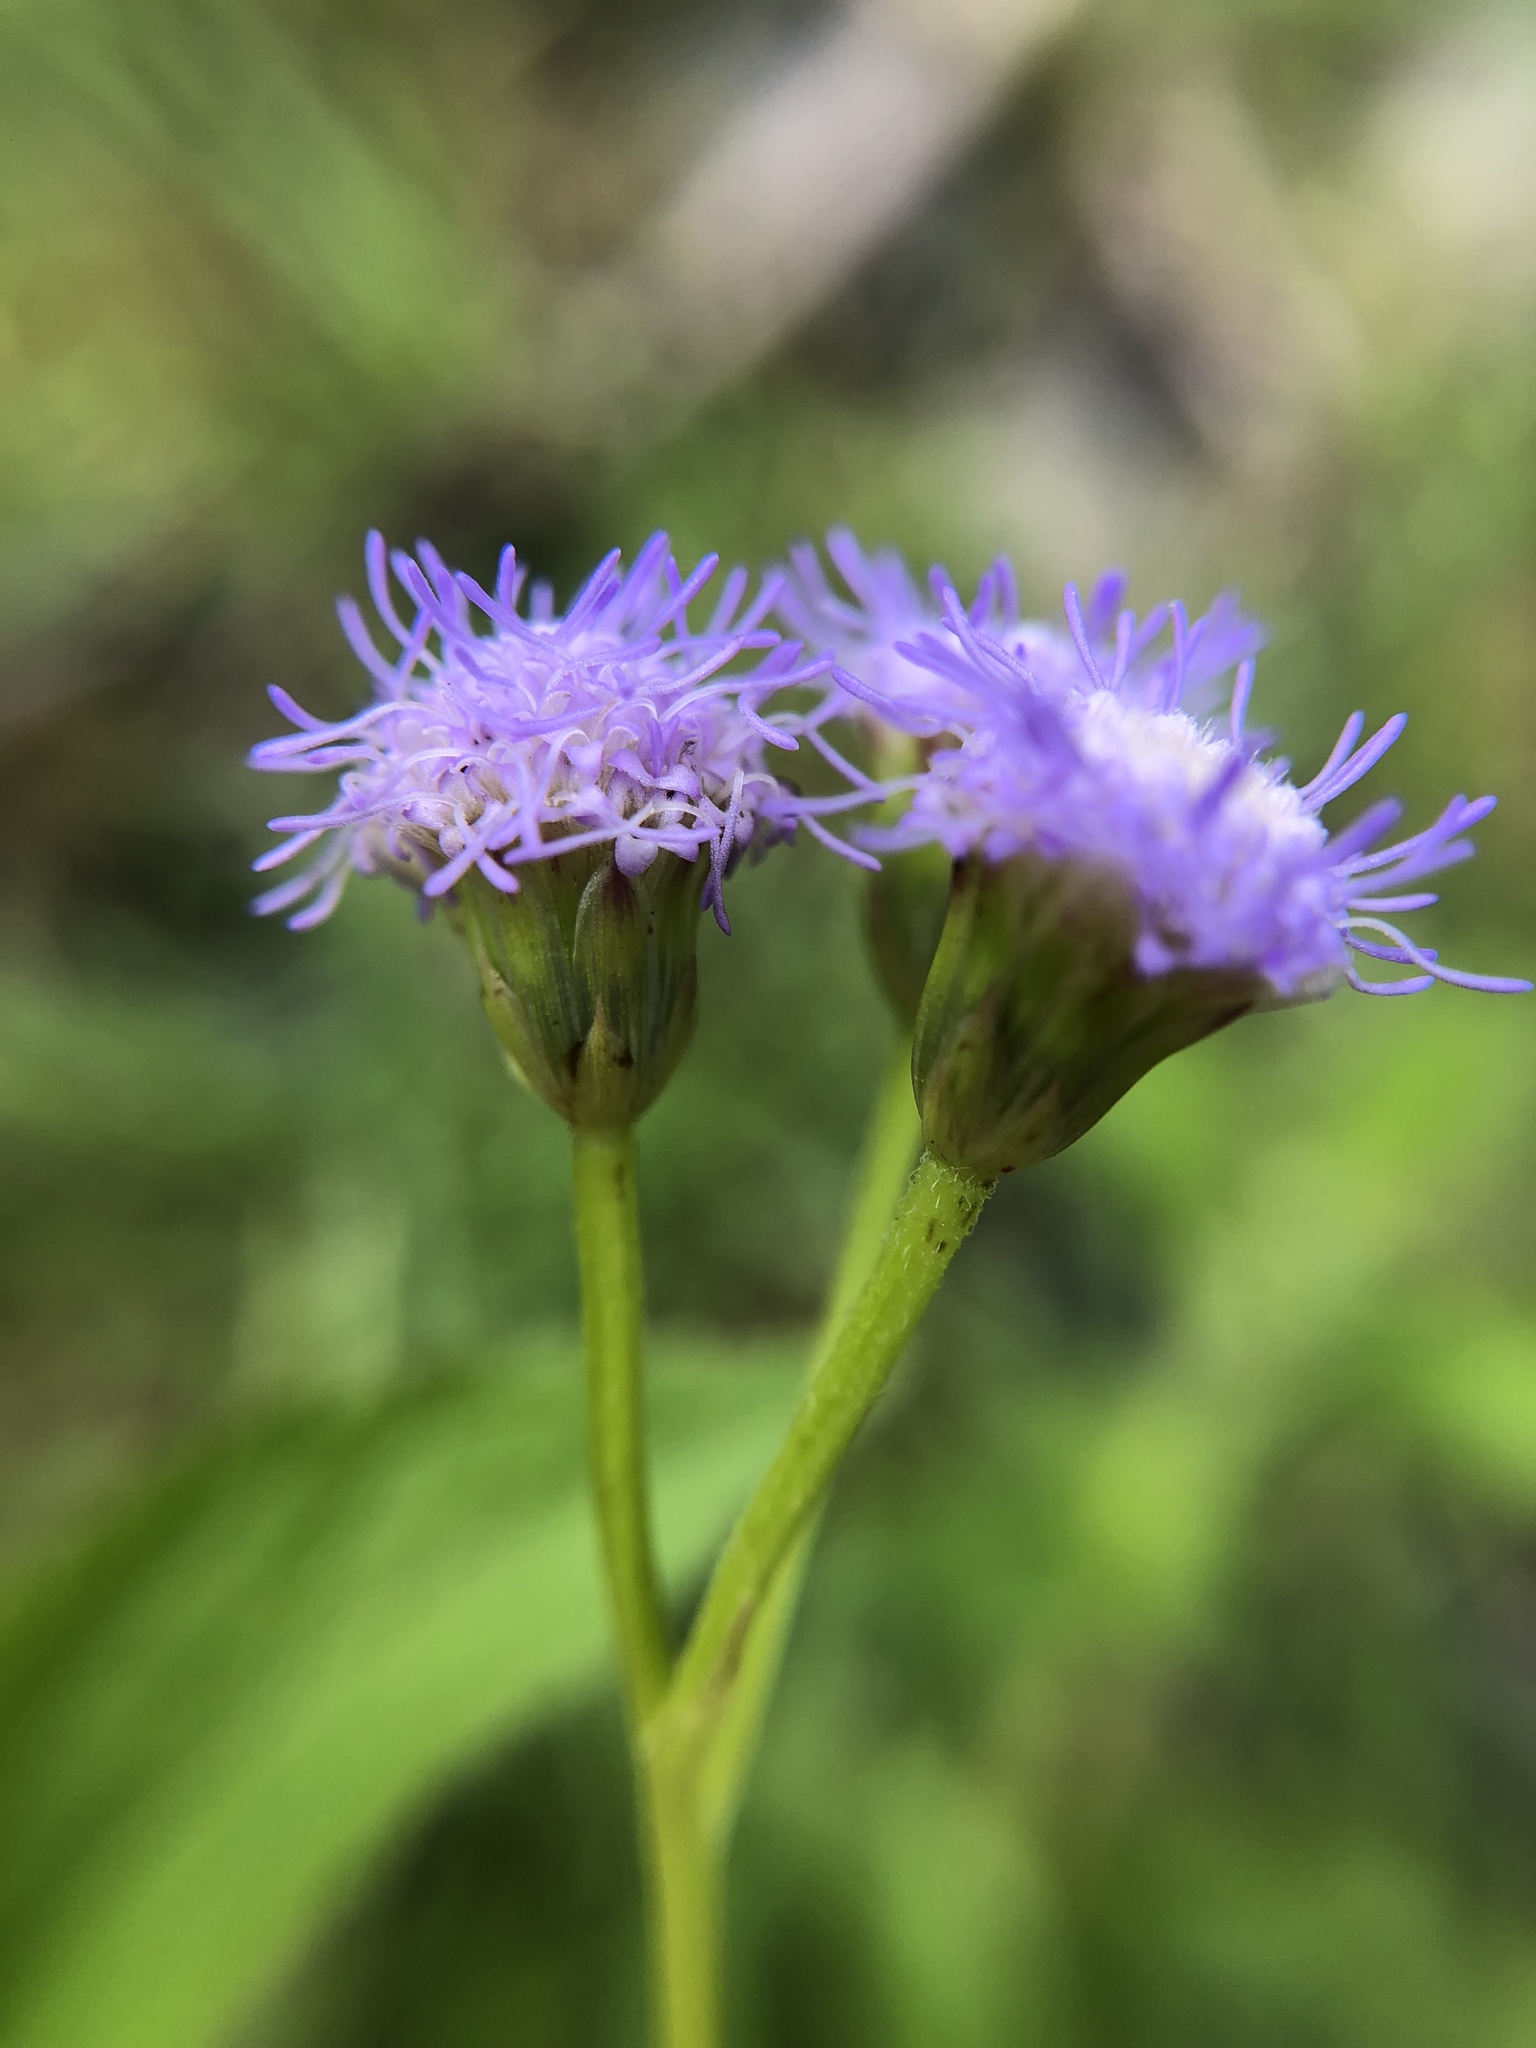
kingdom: Plantae
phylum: Tracheophyta
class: Magnoliopsida
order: Asterales
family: Asteraceae
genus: Praxelis
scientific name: Praxelis clematidea
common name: Praxelis
